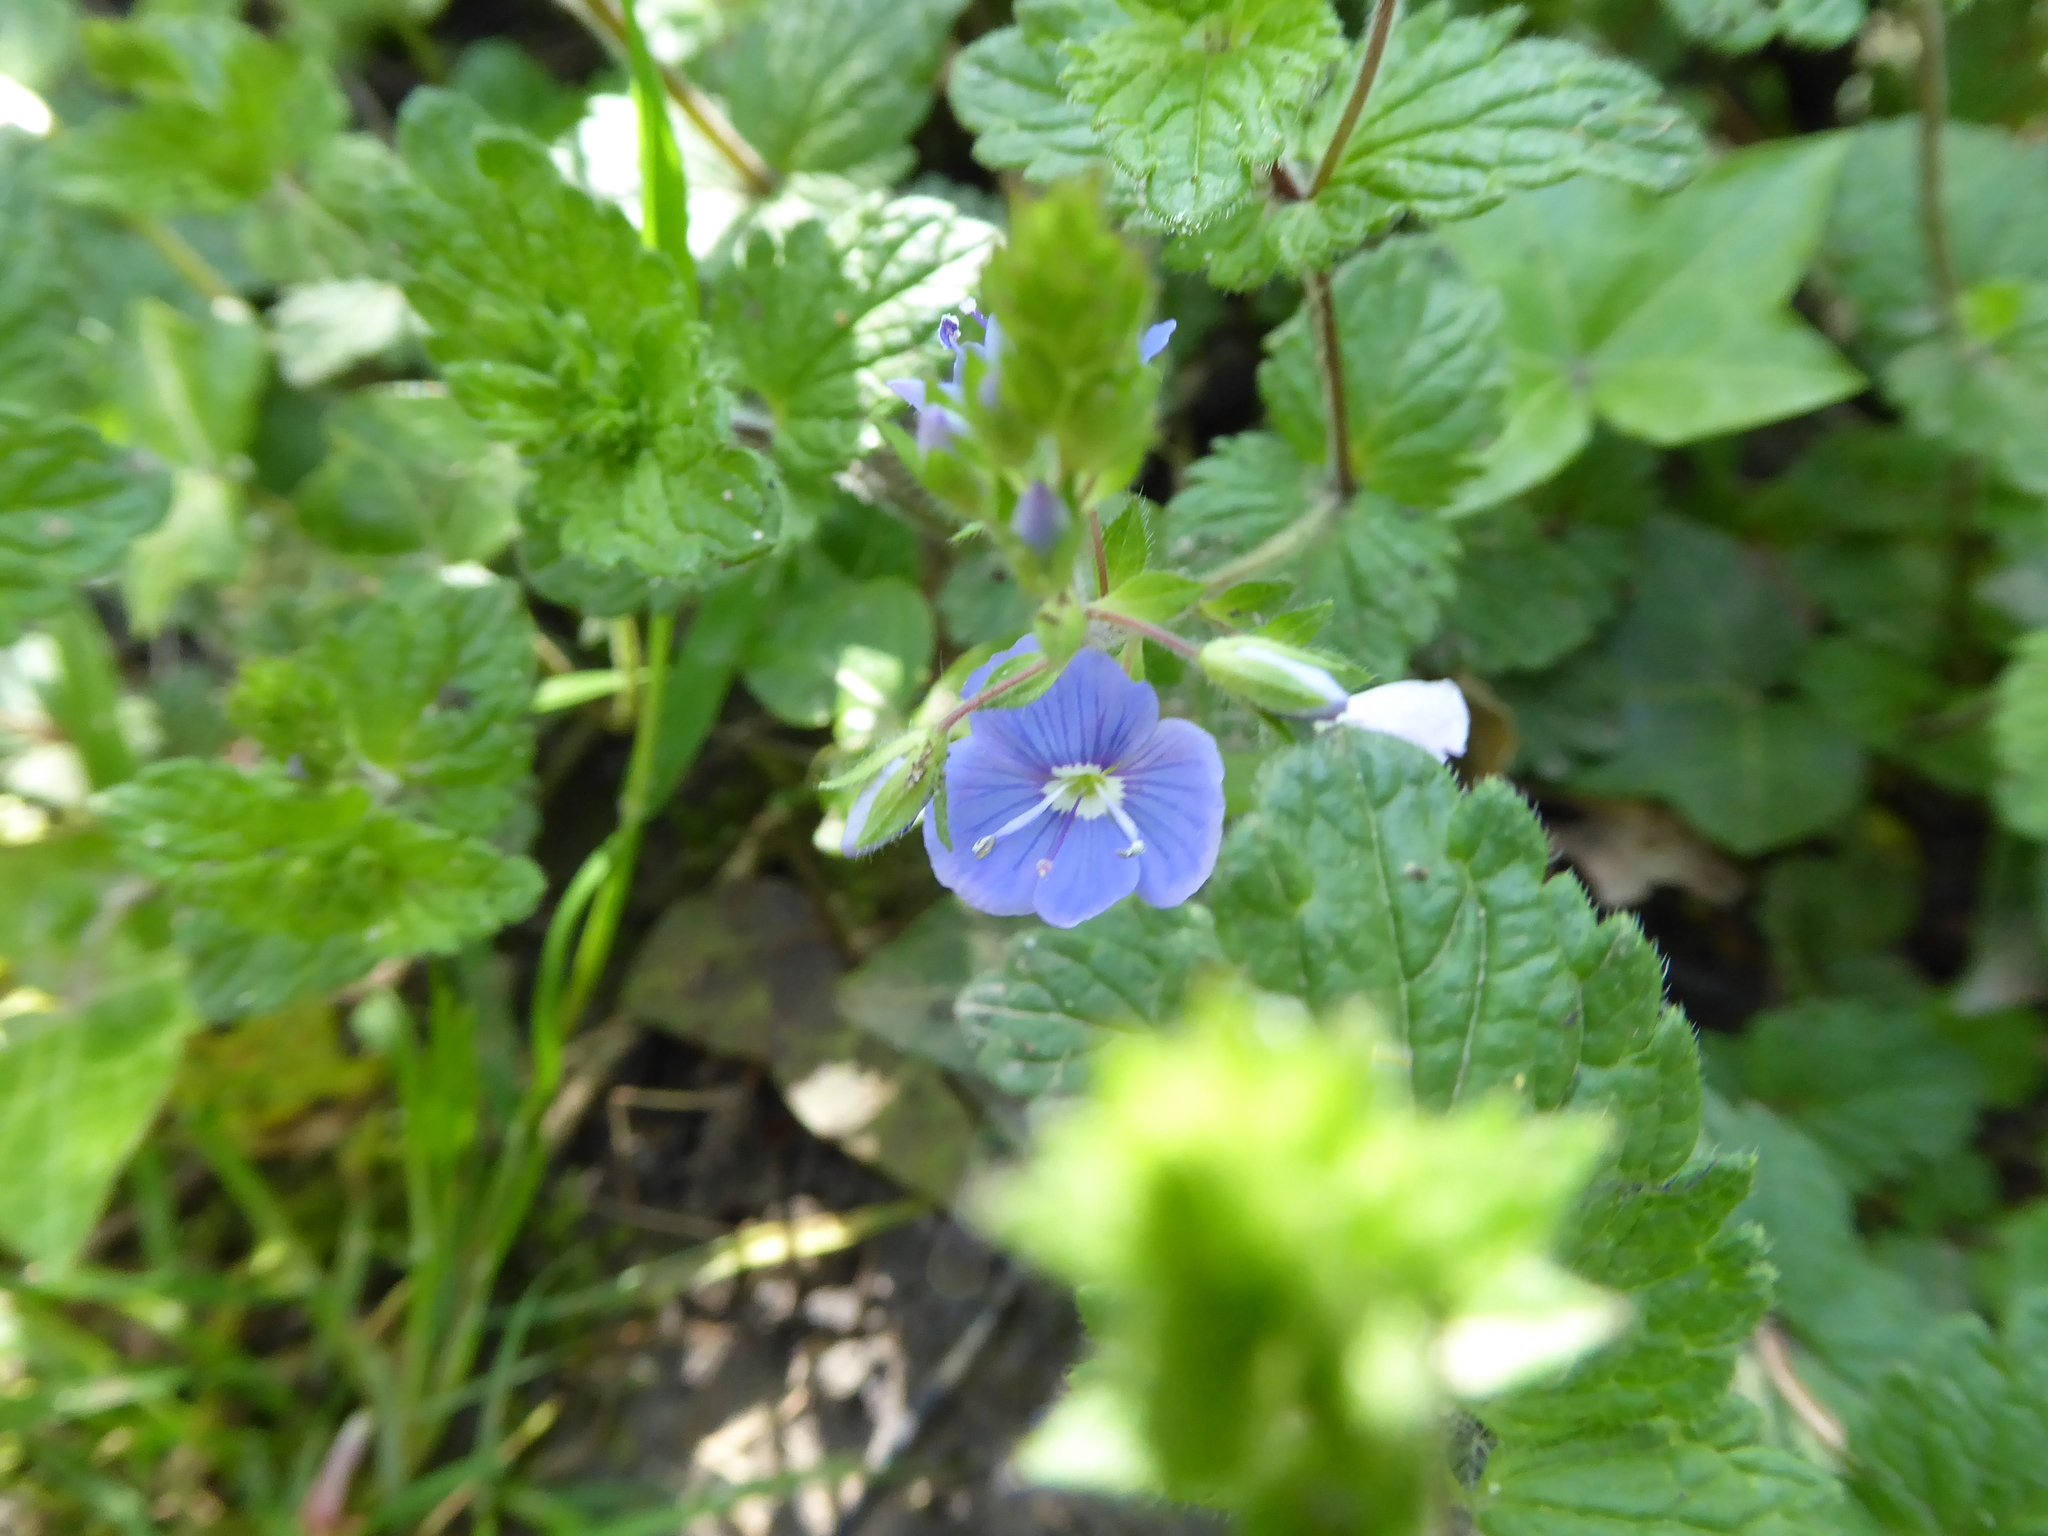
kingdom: Plantae
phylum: Tracheophyta
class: Magnoliopsida
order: Lamiales
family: Plantaginaceae
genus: Veronica
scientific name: Veronica chamaedrys
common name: Germander speedwell
